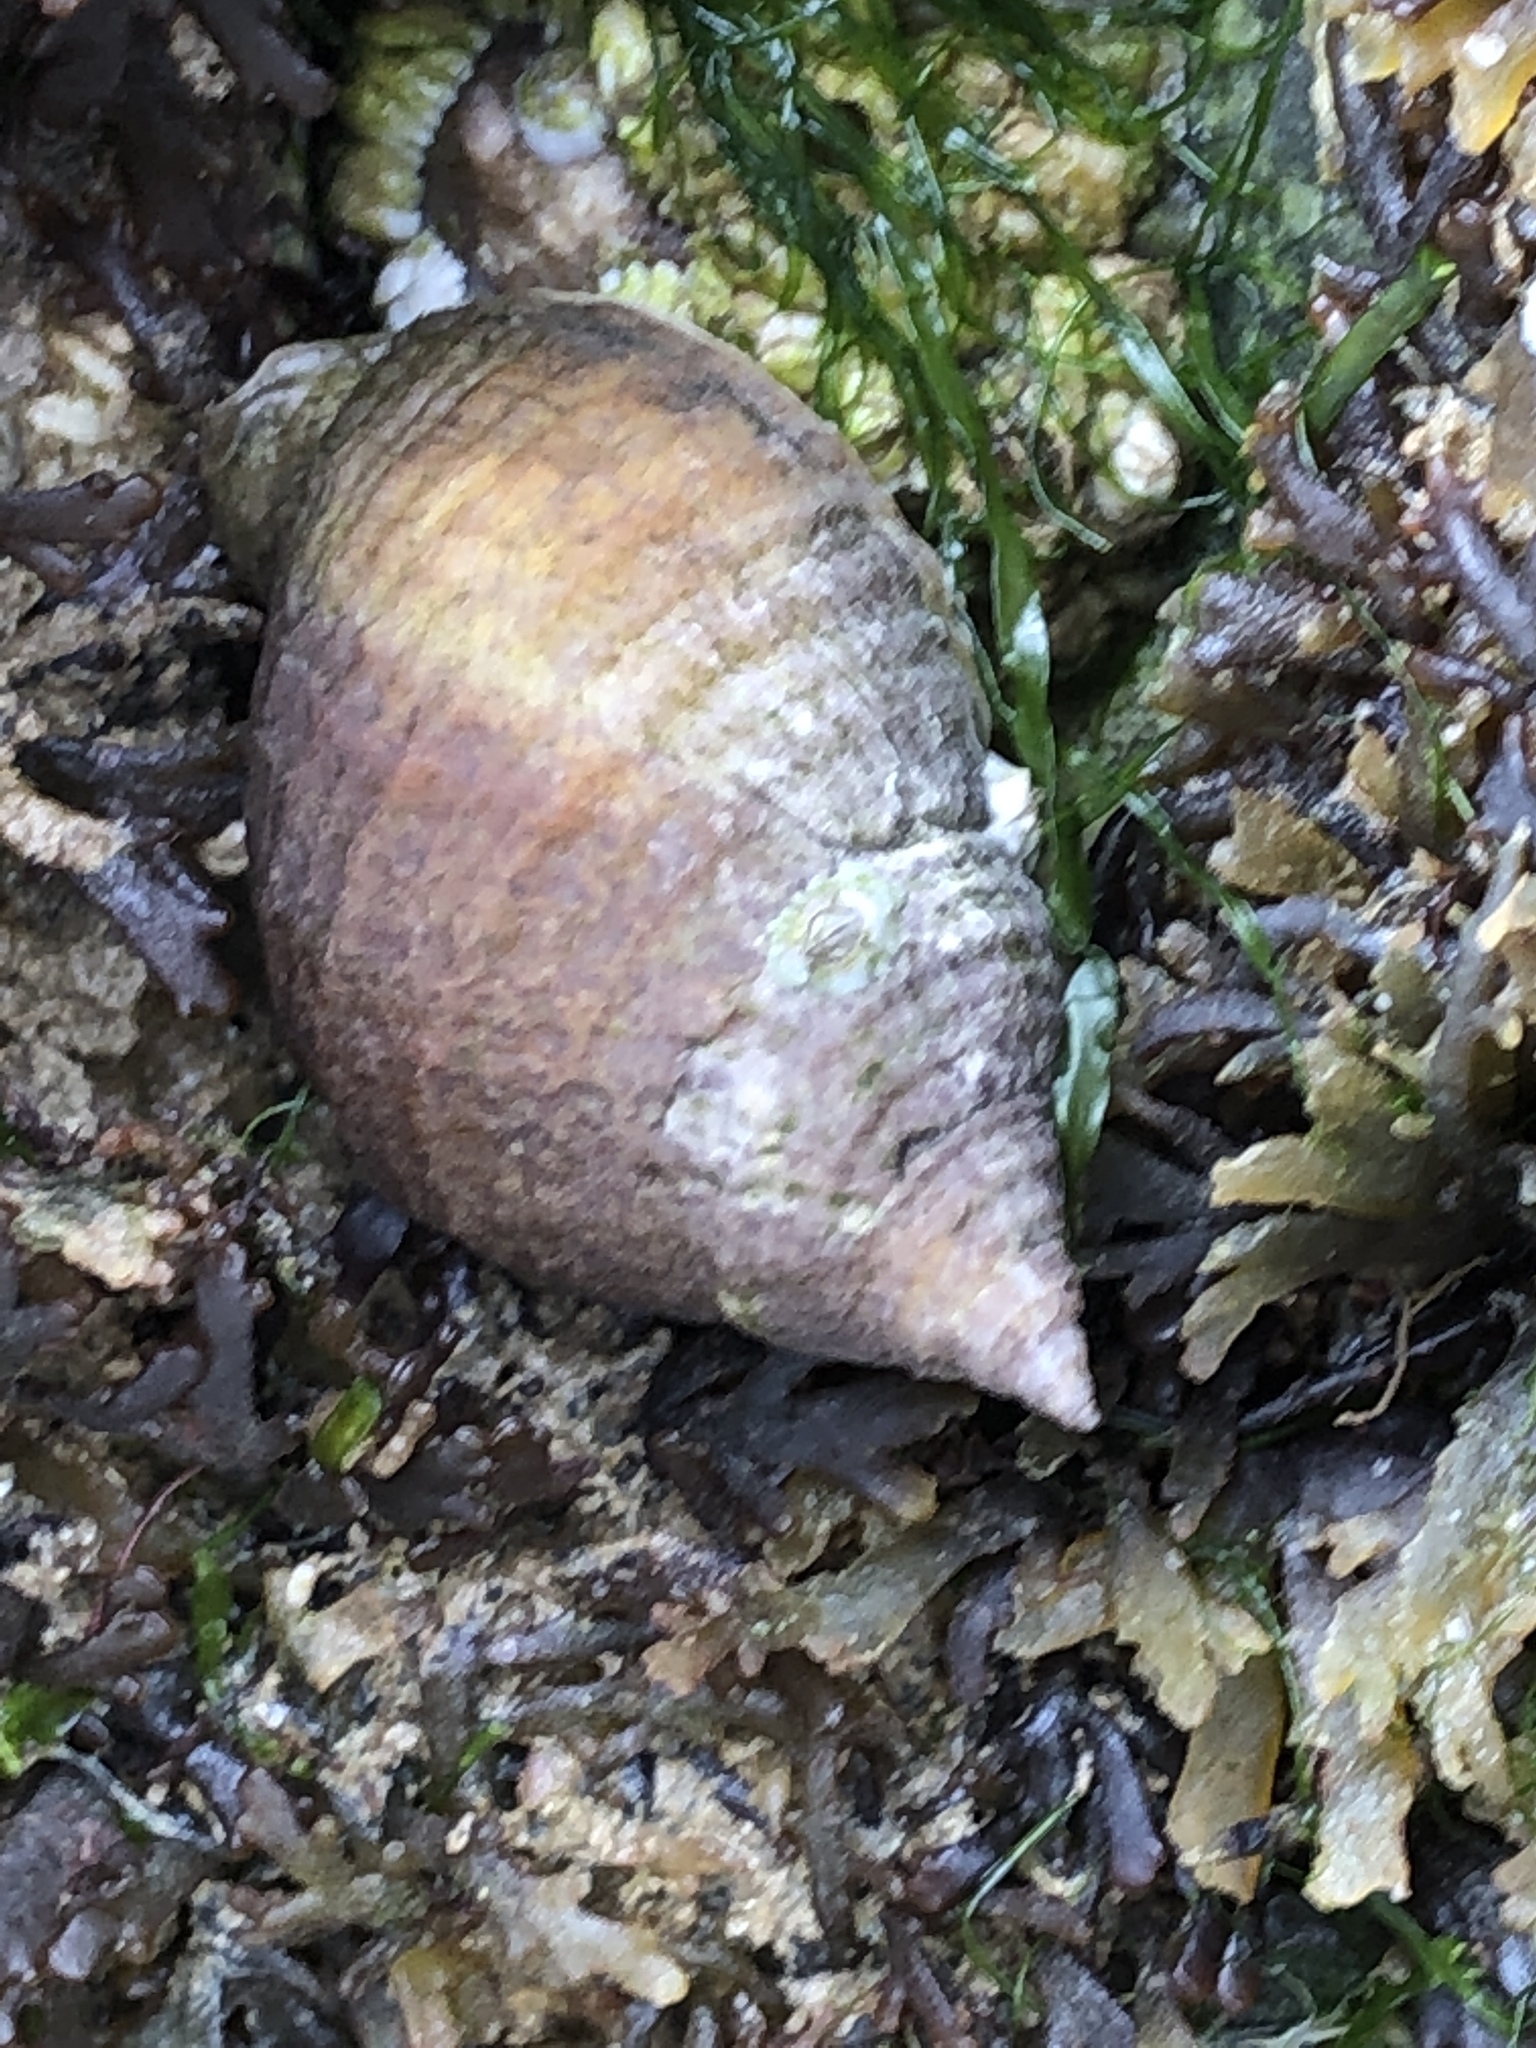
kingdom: Animalia
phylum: Mollusca
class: Gastropoda
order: Neogastropoda
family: Muricidae
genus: Nucella
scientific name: Nucella lapillus
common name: Dog whelk
